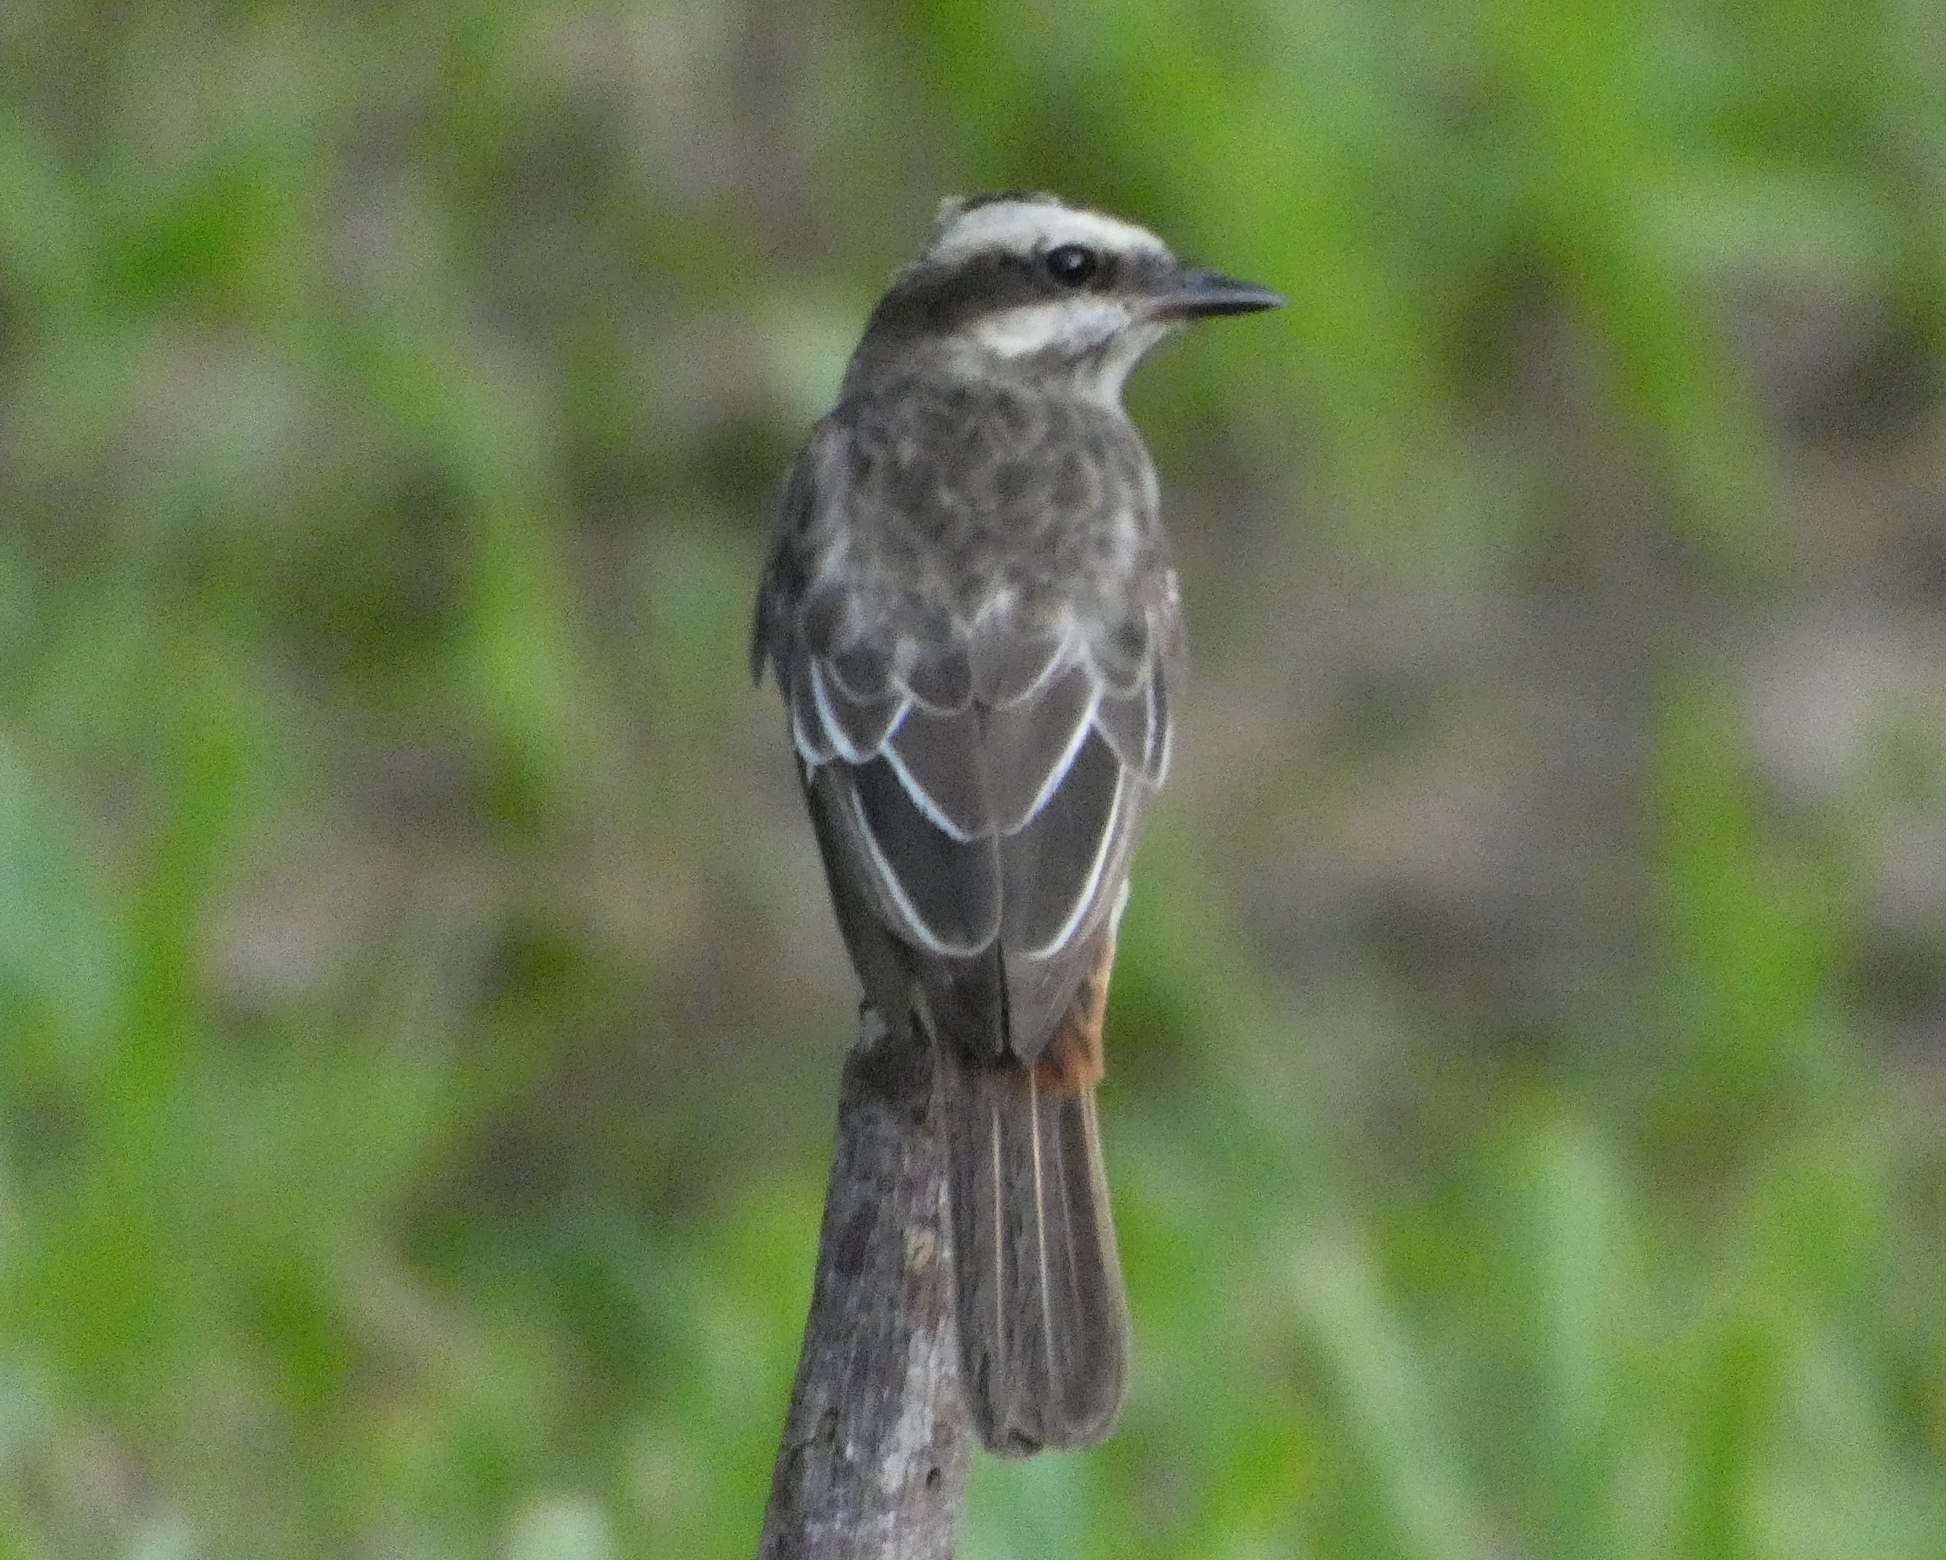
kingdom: Animalia
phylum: Chordata
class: Aves
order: Passeriformes
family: Tyrannidae
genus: Empidonomus
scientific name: Empidonomus varius
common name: Variegated flycatcher
